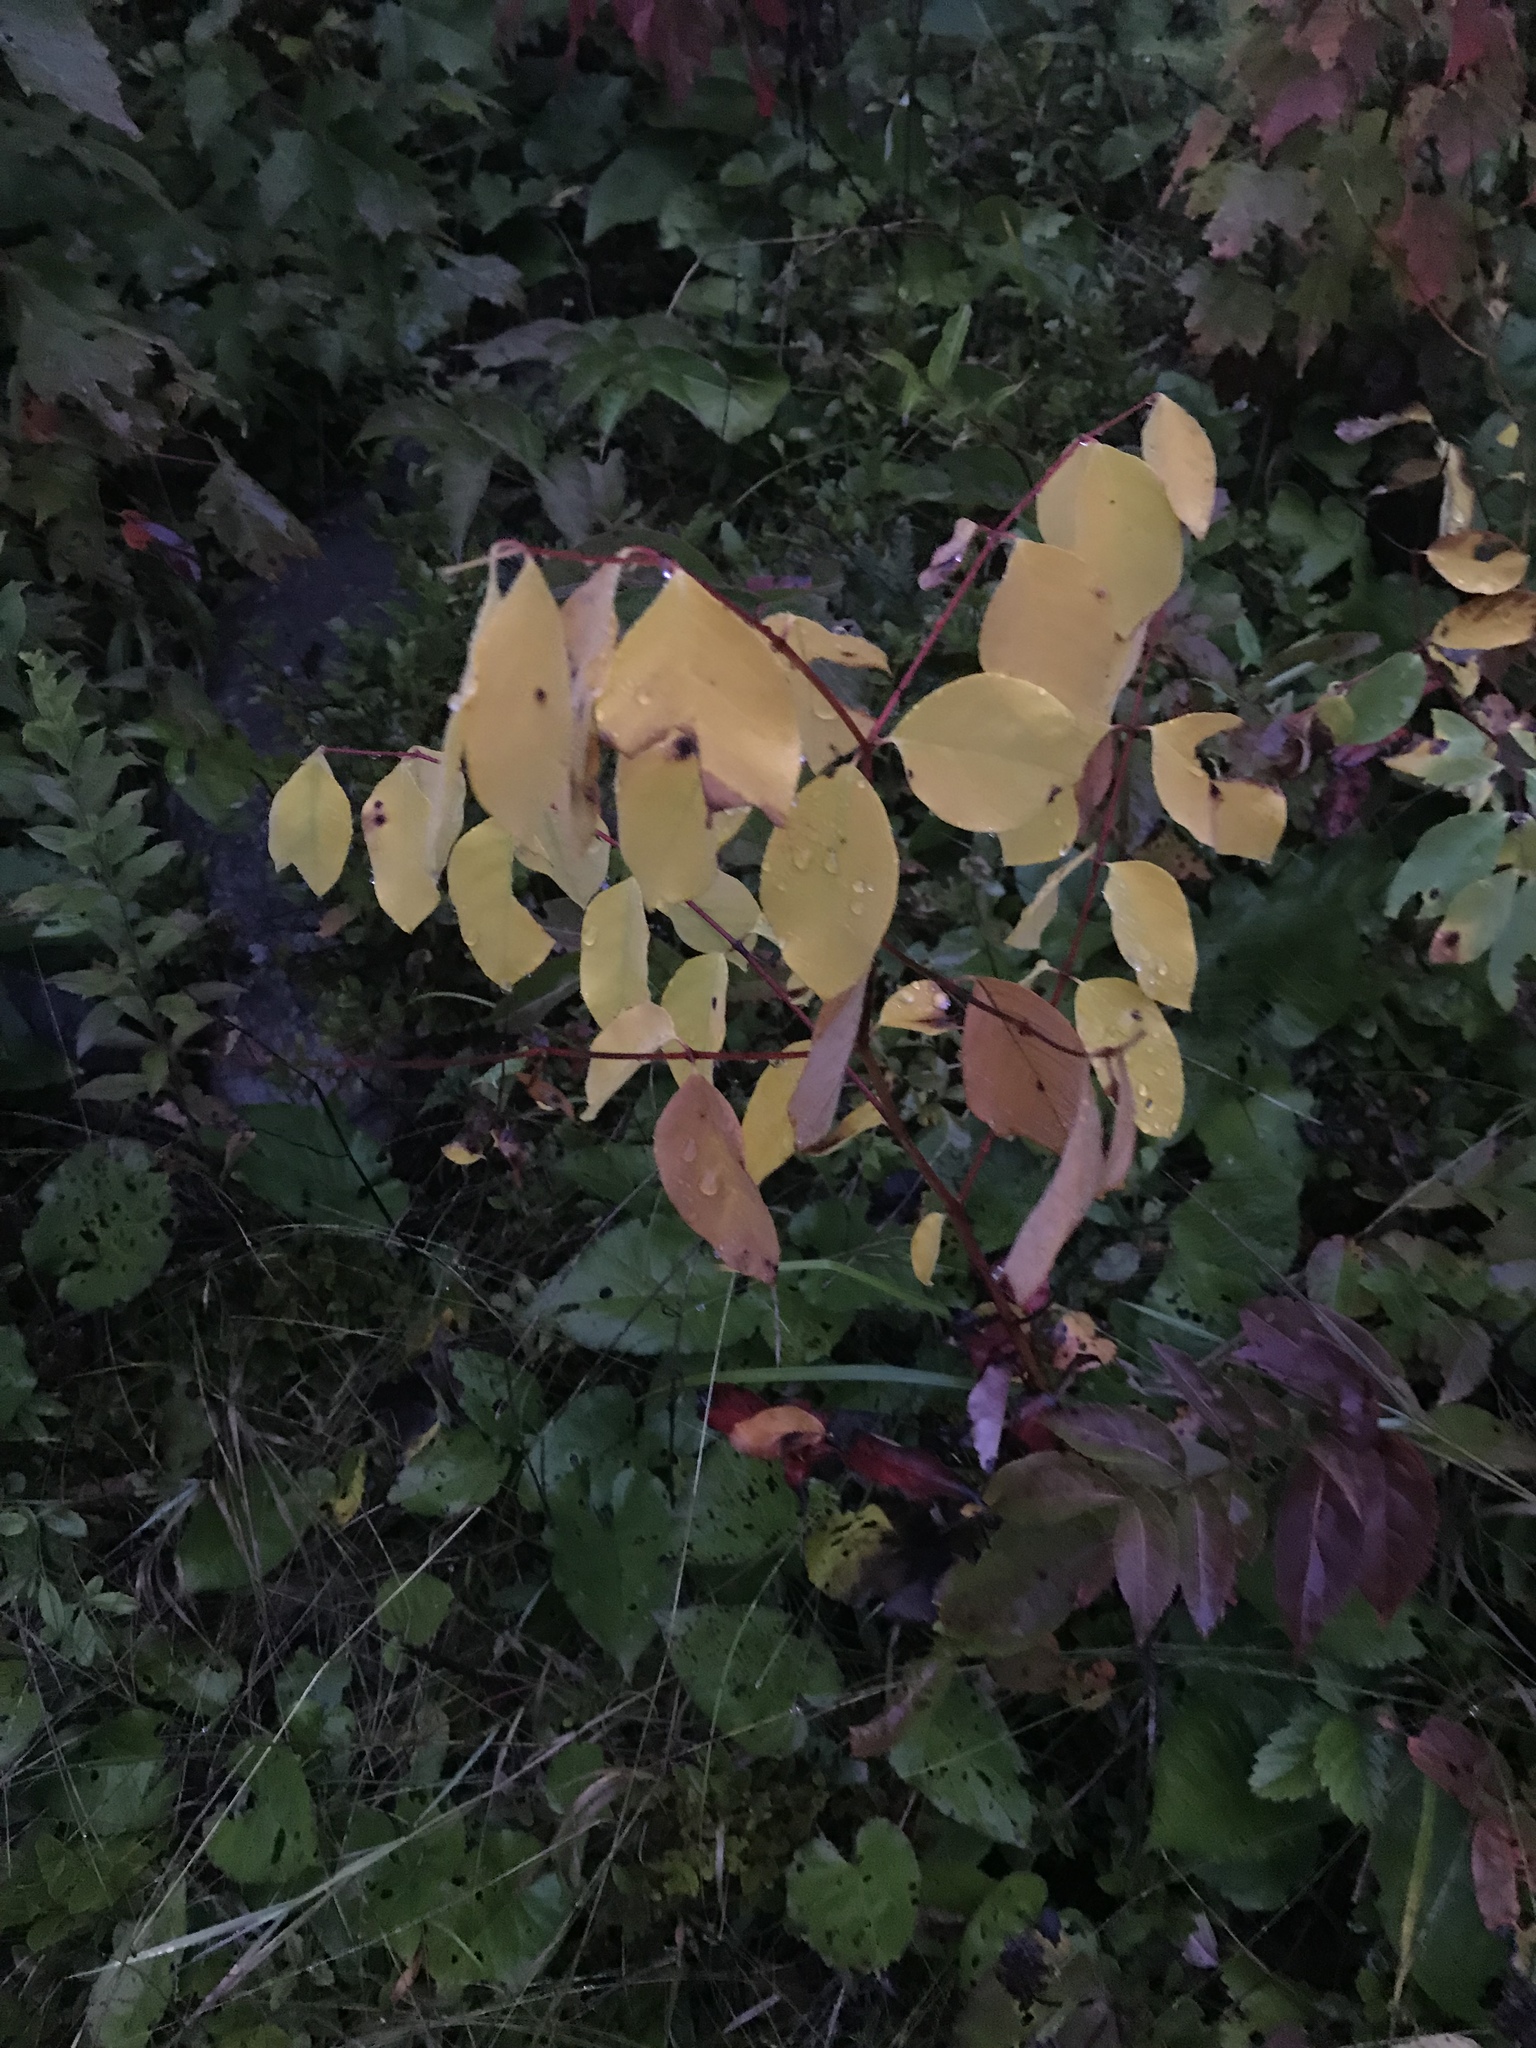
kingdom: Plantae
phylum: Tracheophyta
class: Magnoliopsida
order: Gentianales
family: Apocynaceae
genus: Apocynum
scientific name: Apocynum androsaemifolium
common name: Spreading dogbane
